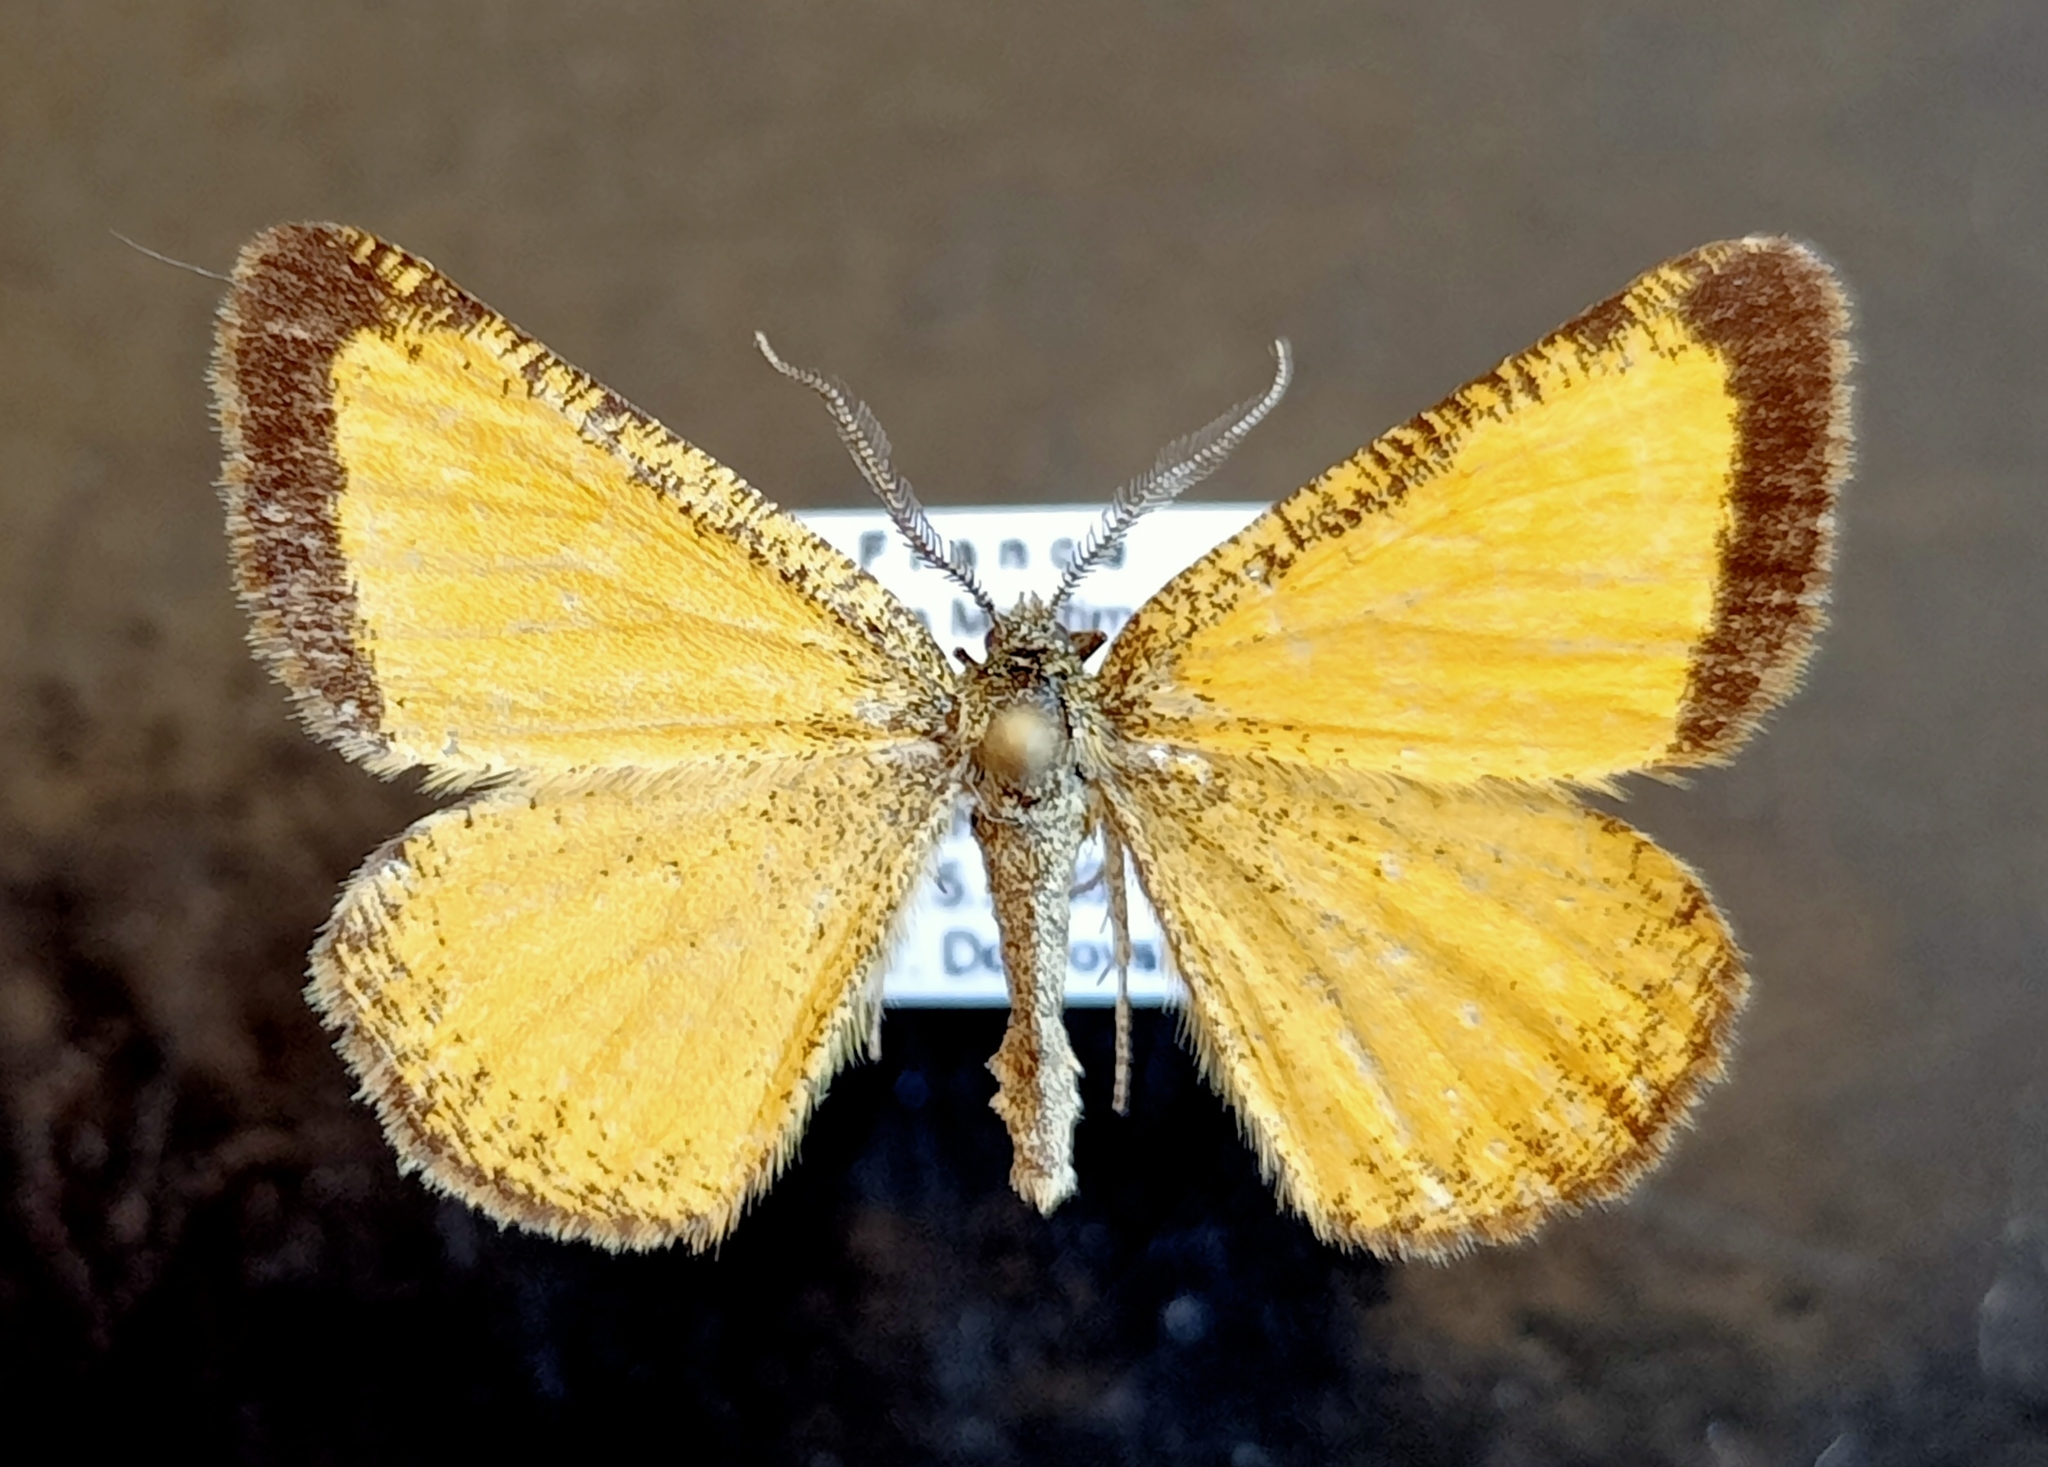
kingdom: Animalia
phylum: Arthropoda
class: Insecta
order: Lepidoptera
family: Geometridae
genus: Isturgia
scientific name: Isturgia limbaria
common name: Frosted yellow
